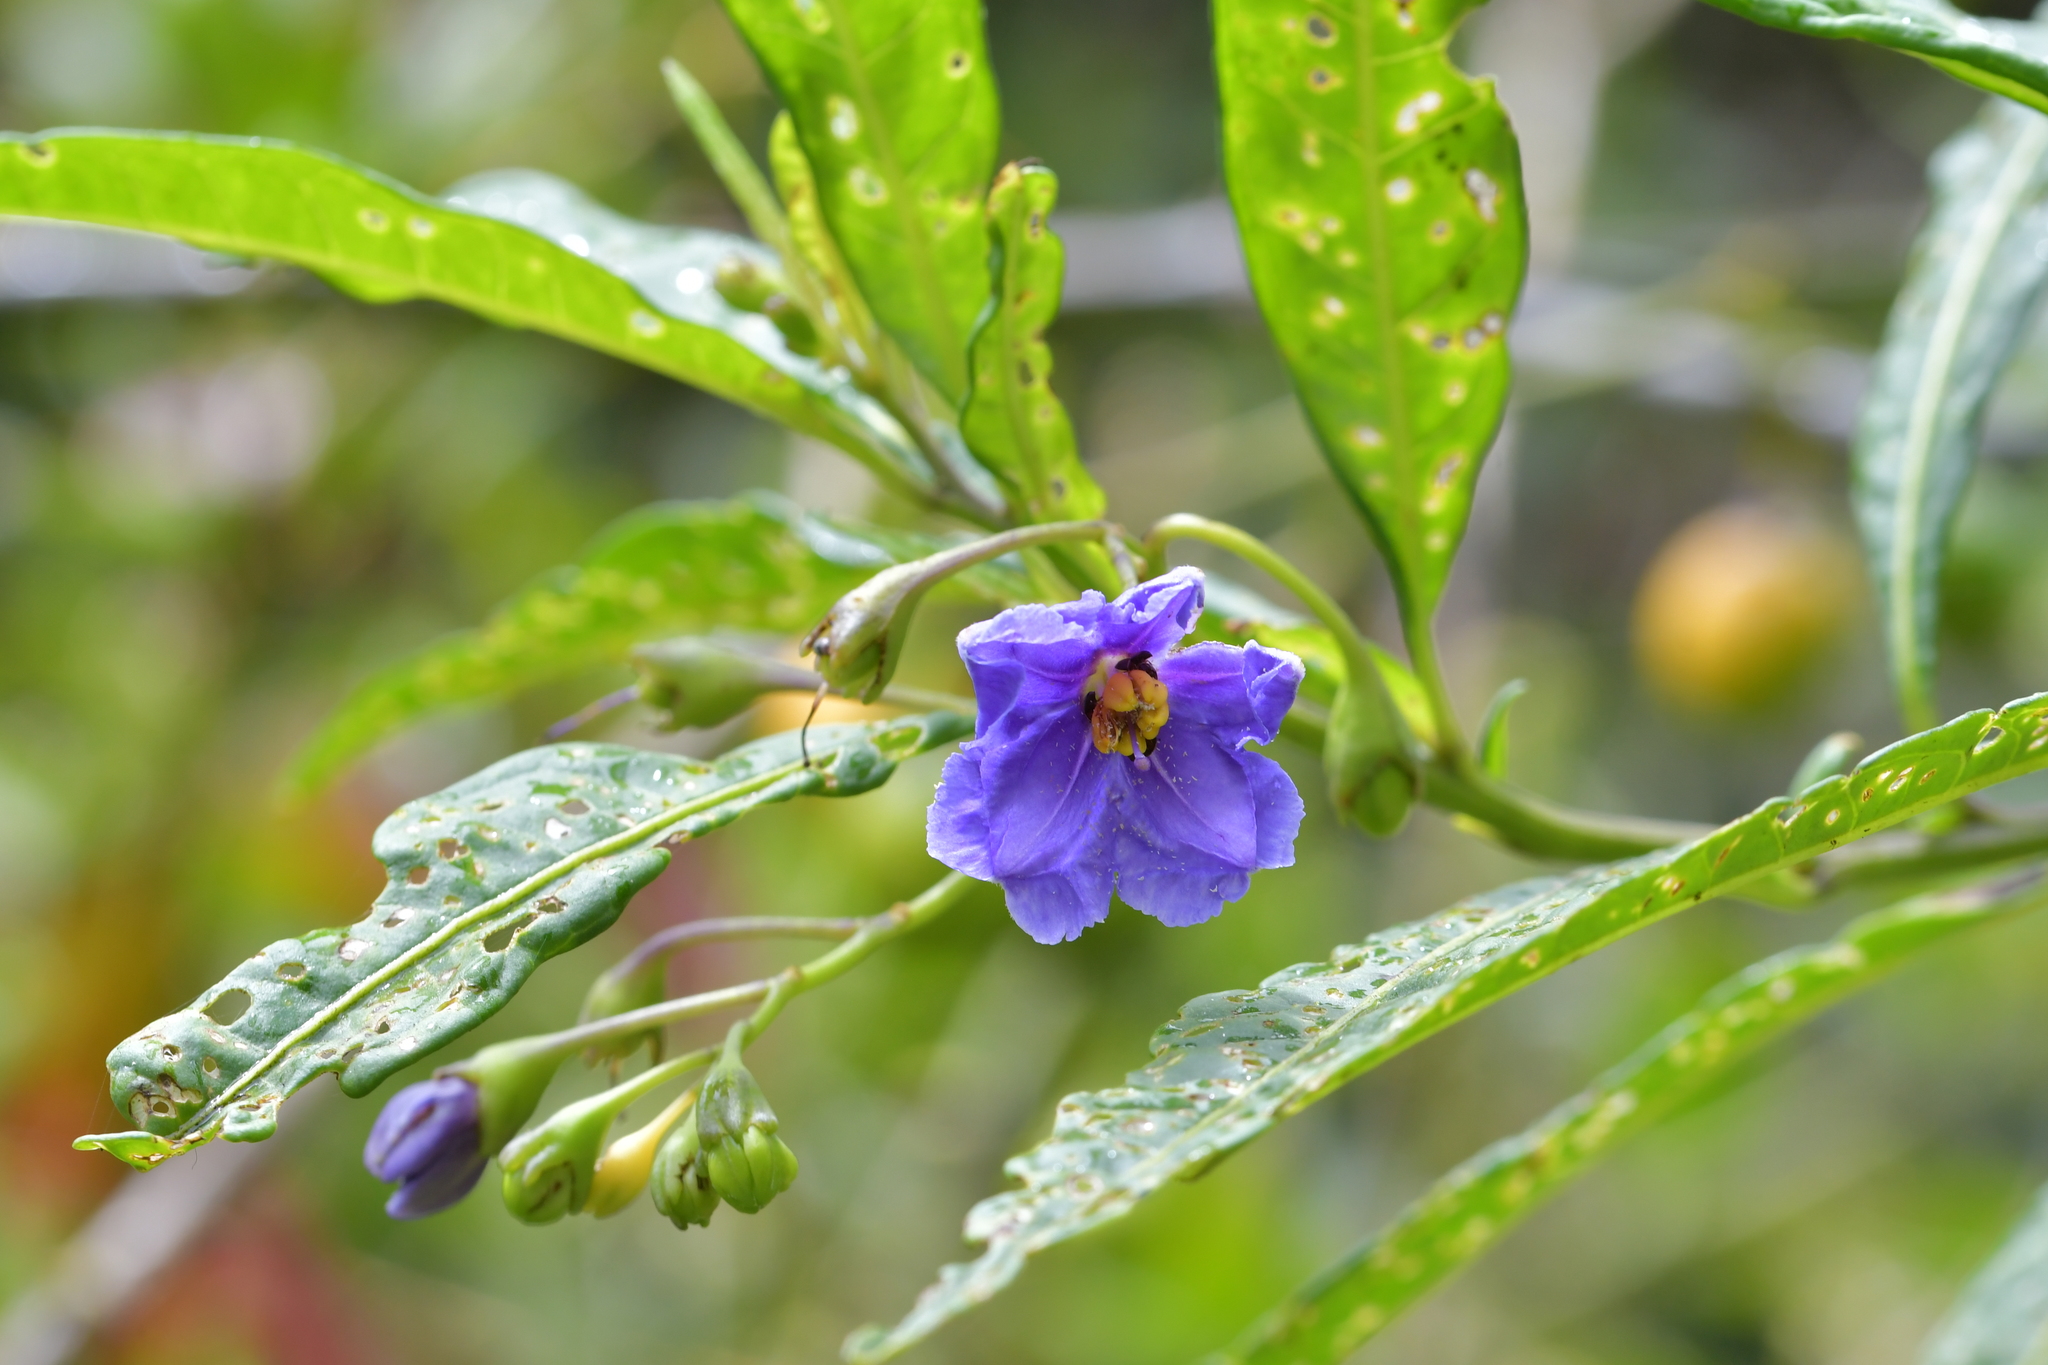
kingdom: Plantae
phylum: Tracheophyta
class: Magnoliopsida
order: Solanales
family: Solanaceae
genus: Solanum
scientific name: Solanum laciniatum
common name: Kangaroo-apple
